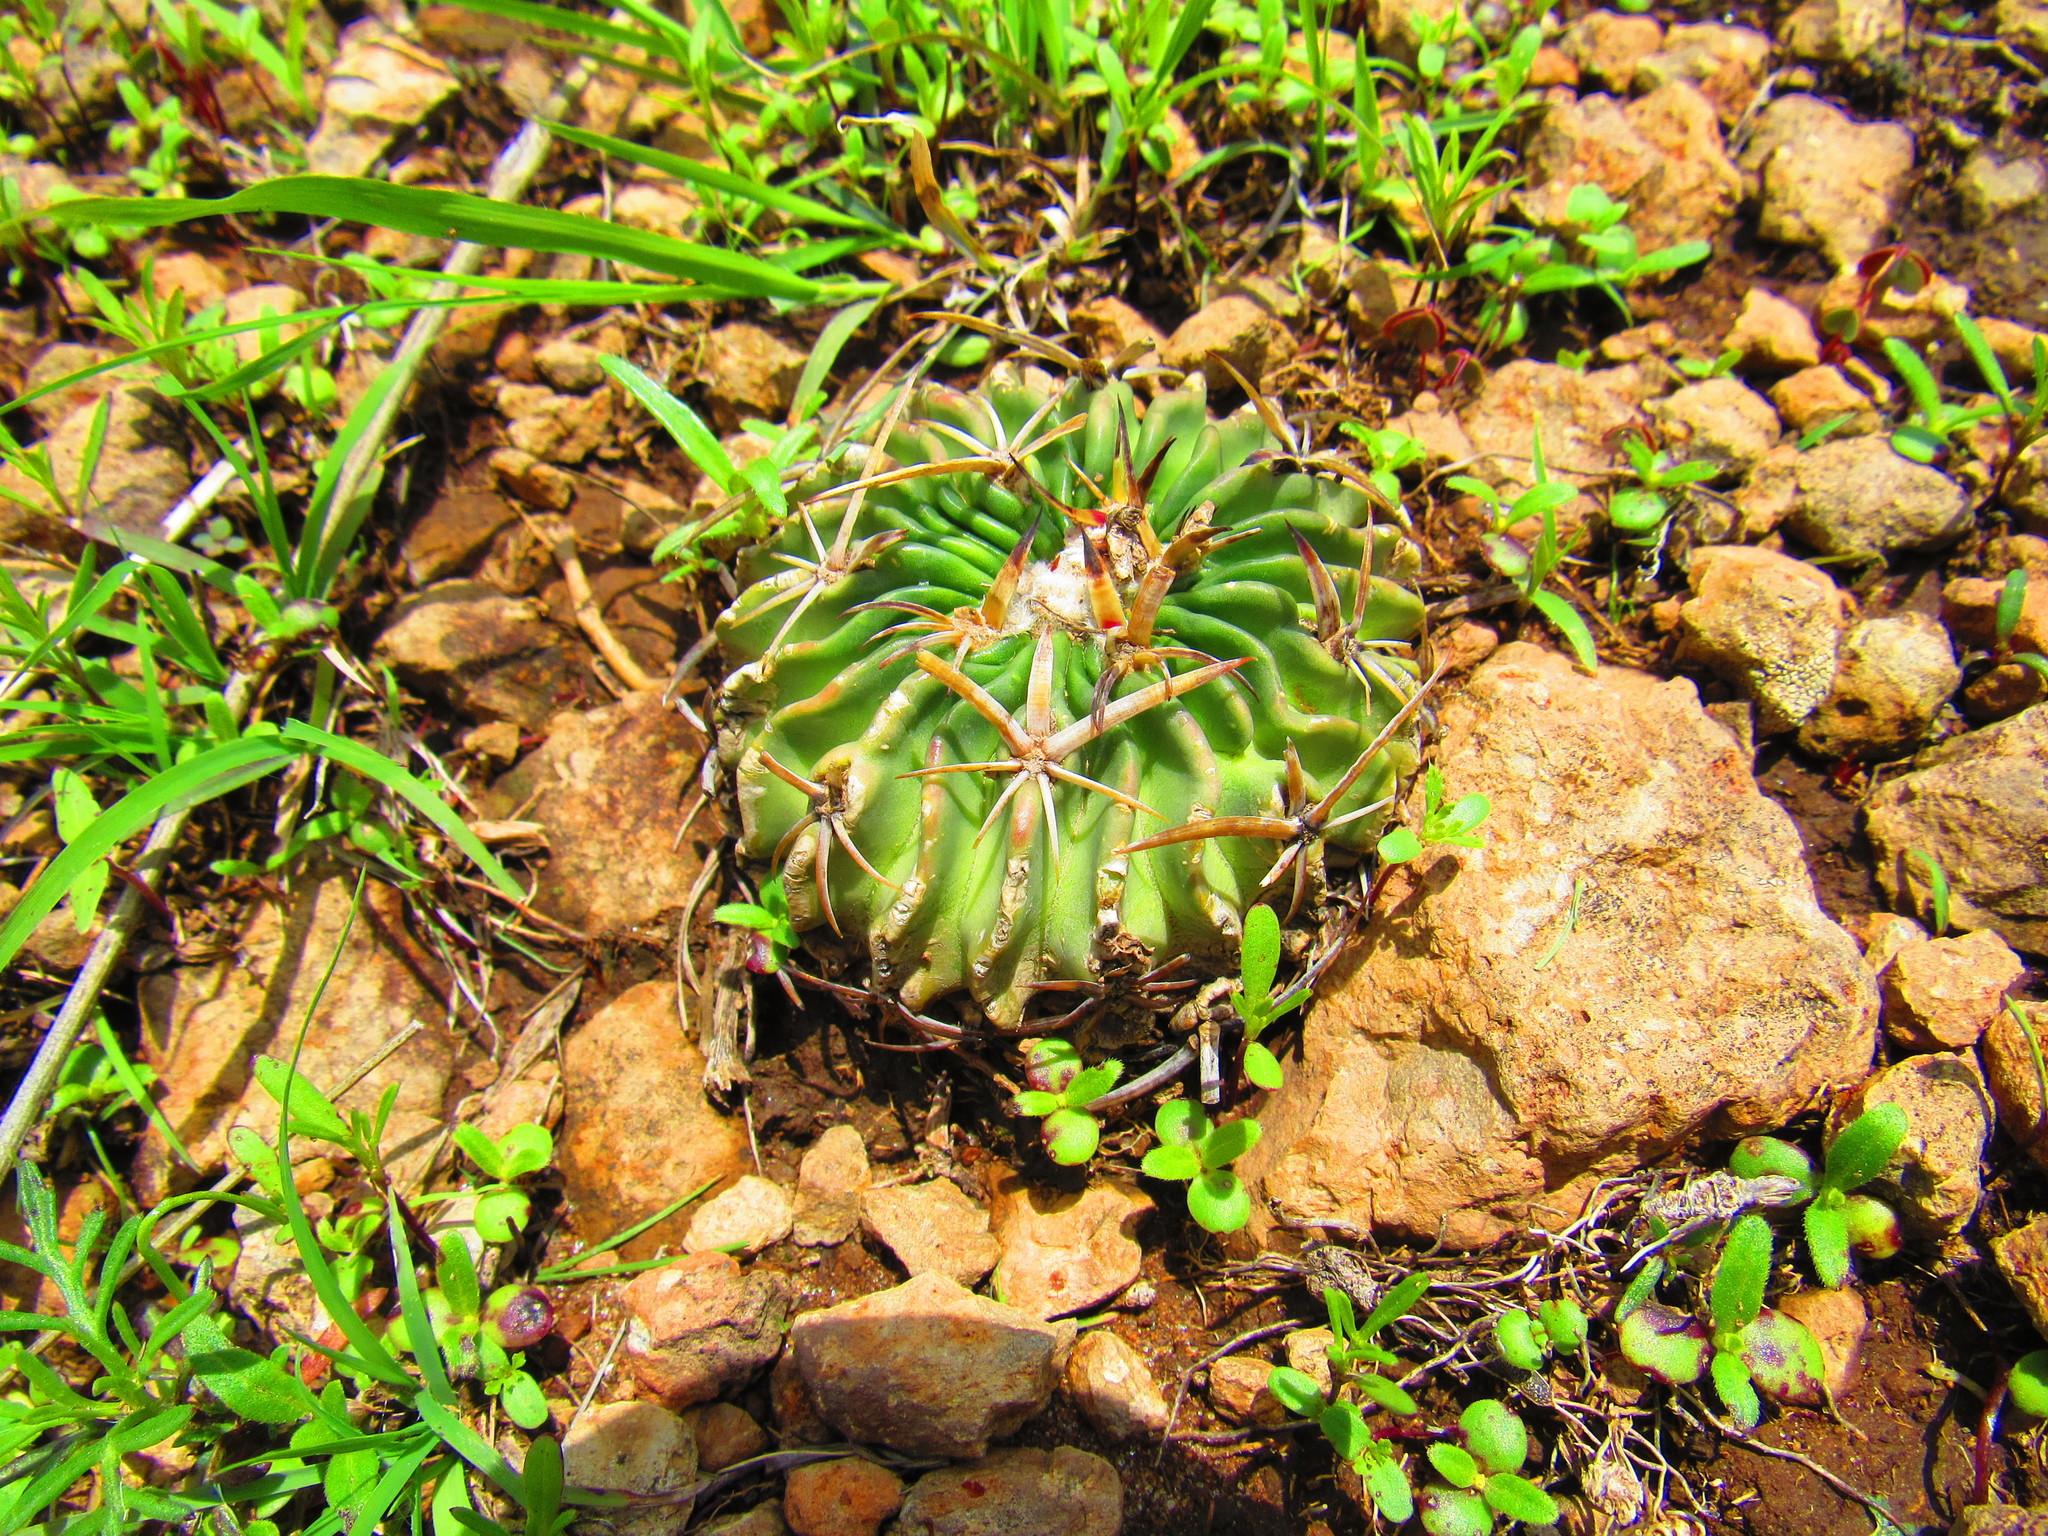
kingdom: Plantae
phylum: Tracheophyta
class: Magnoliopsida
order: Caryophyllales
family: Cactaceae
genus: Stenocactus
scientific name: Stenocactus obvallatus
